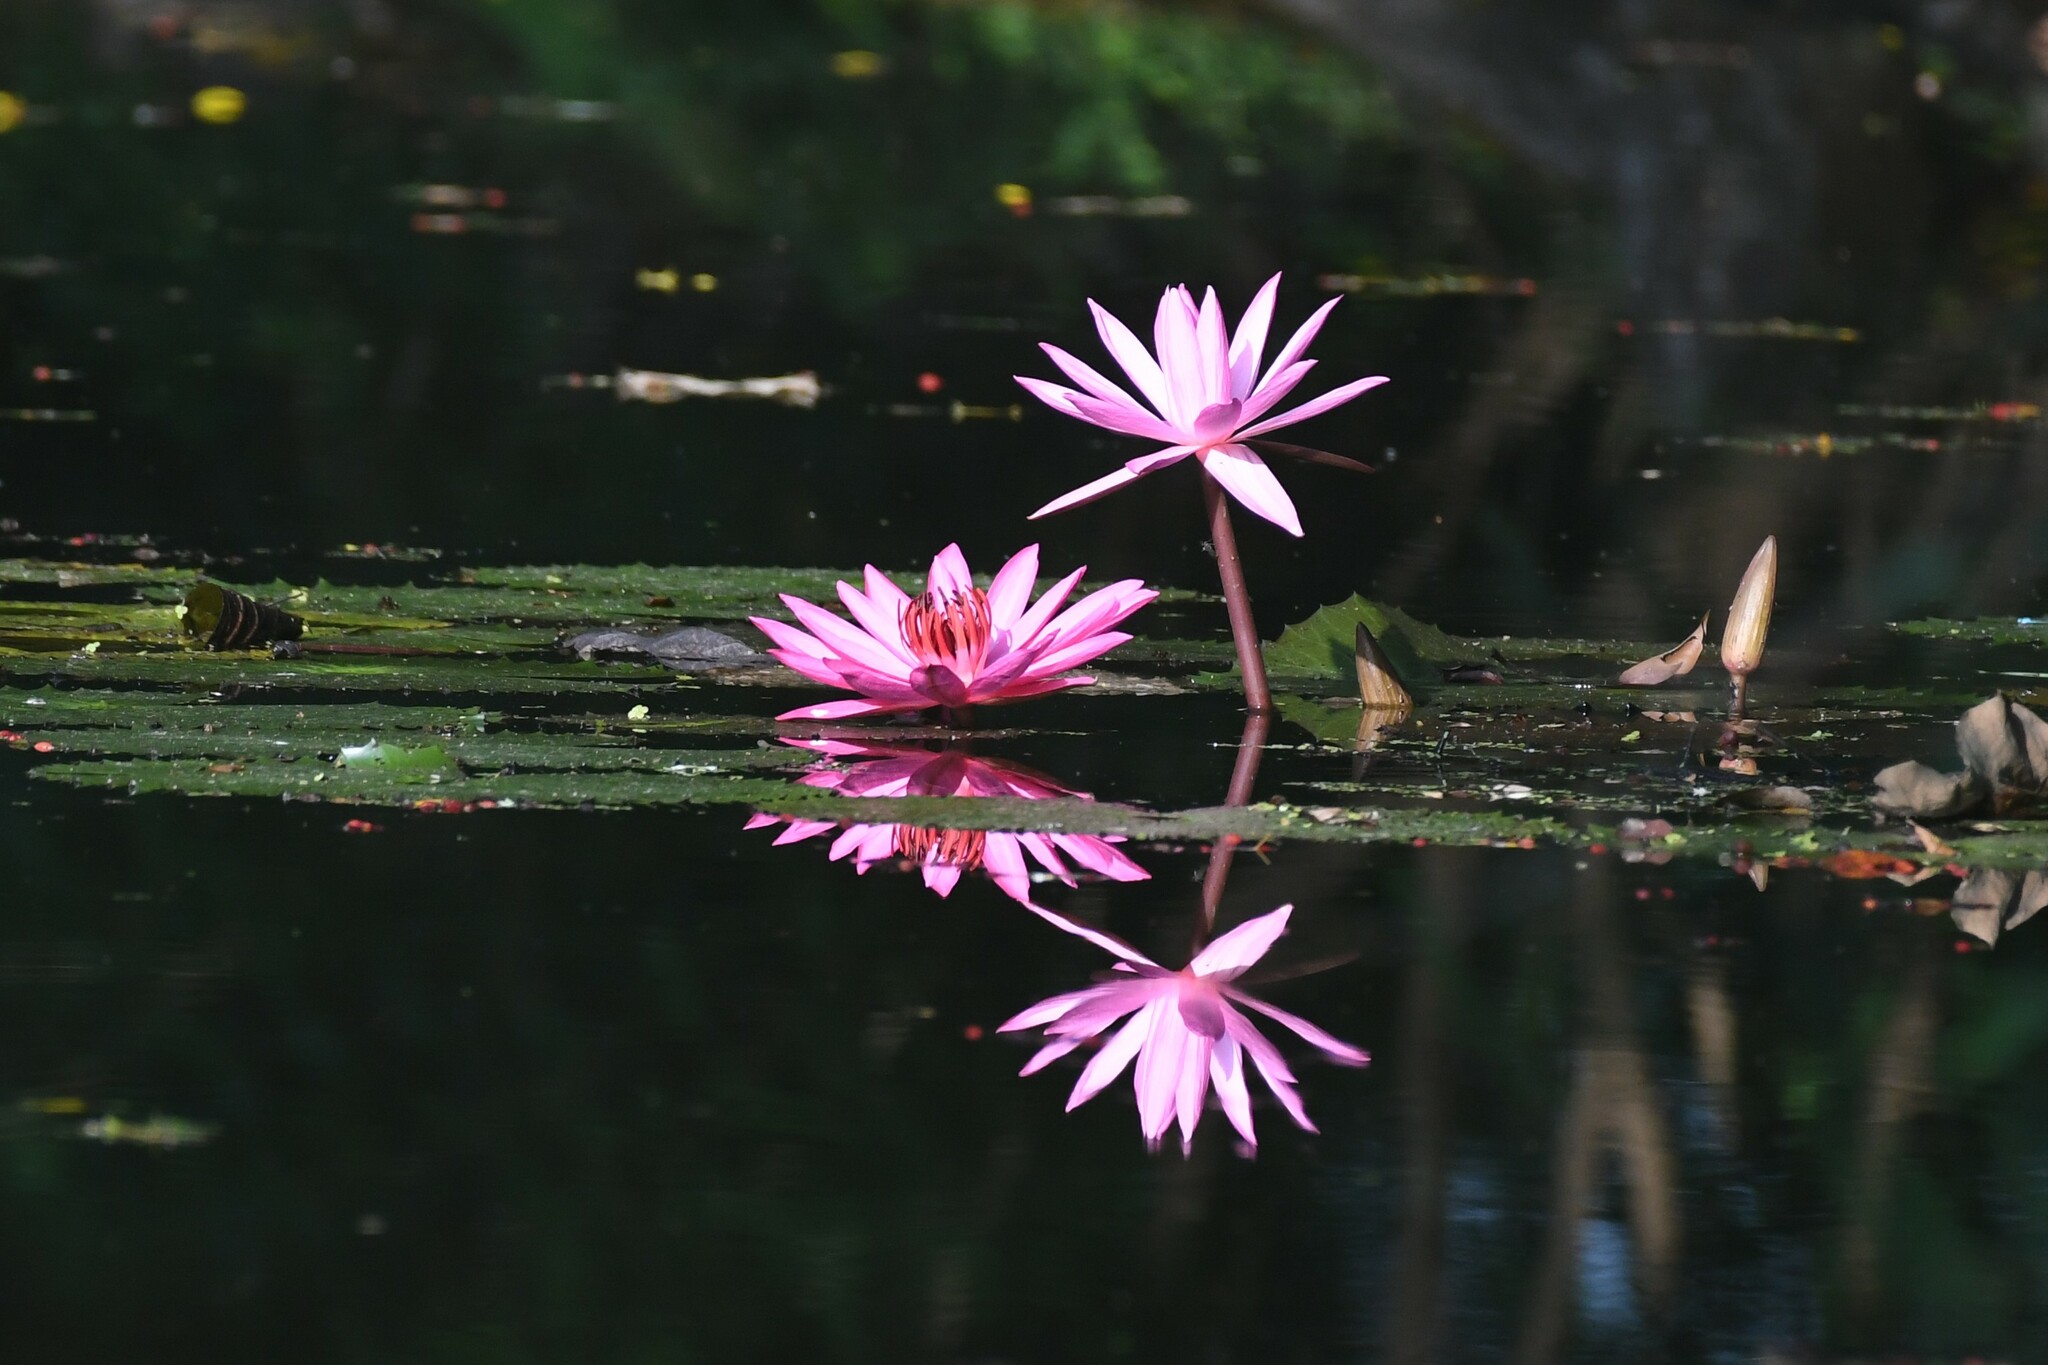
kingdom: Plantae
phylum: Tracheophyta
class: Magnoliopsida
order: Nymphaeales
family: Nymphaeaceae
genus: Nymphaea
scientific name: Nymphaea rubra
